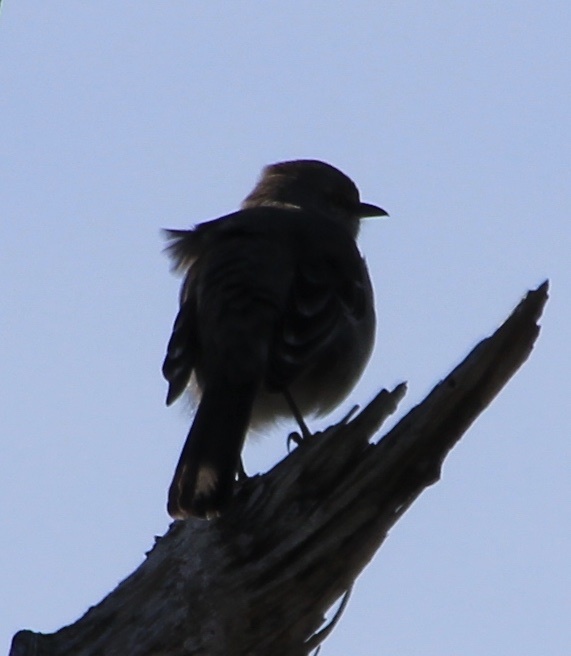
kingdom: Animalia
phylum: Chordata
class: Aves
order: Passeriformes
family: Mimidae
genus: Mimus
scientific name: Mimus polyglottos
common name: Northern mockingbird
